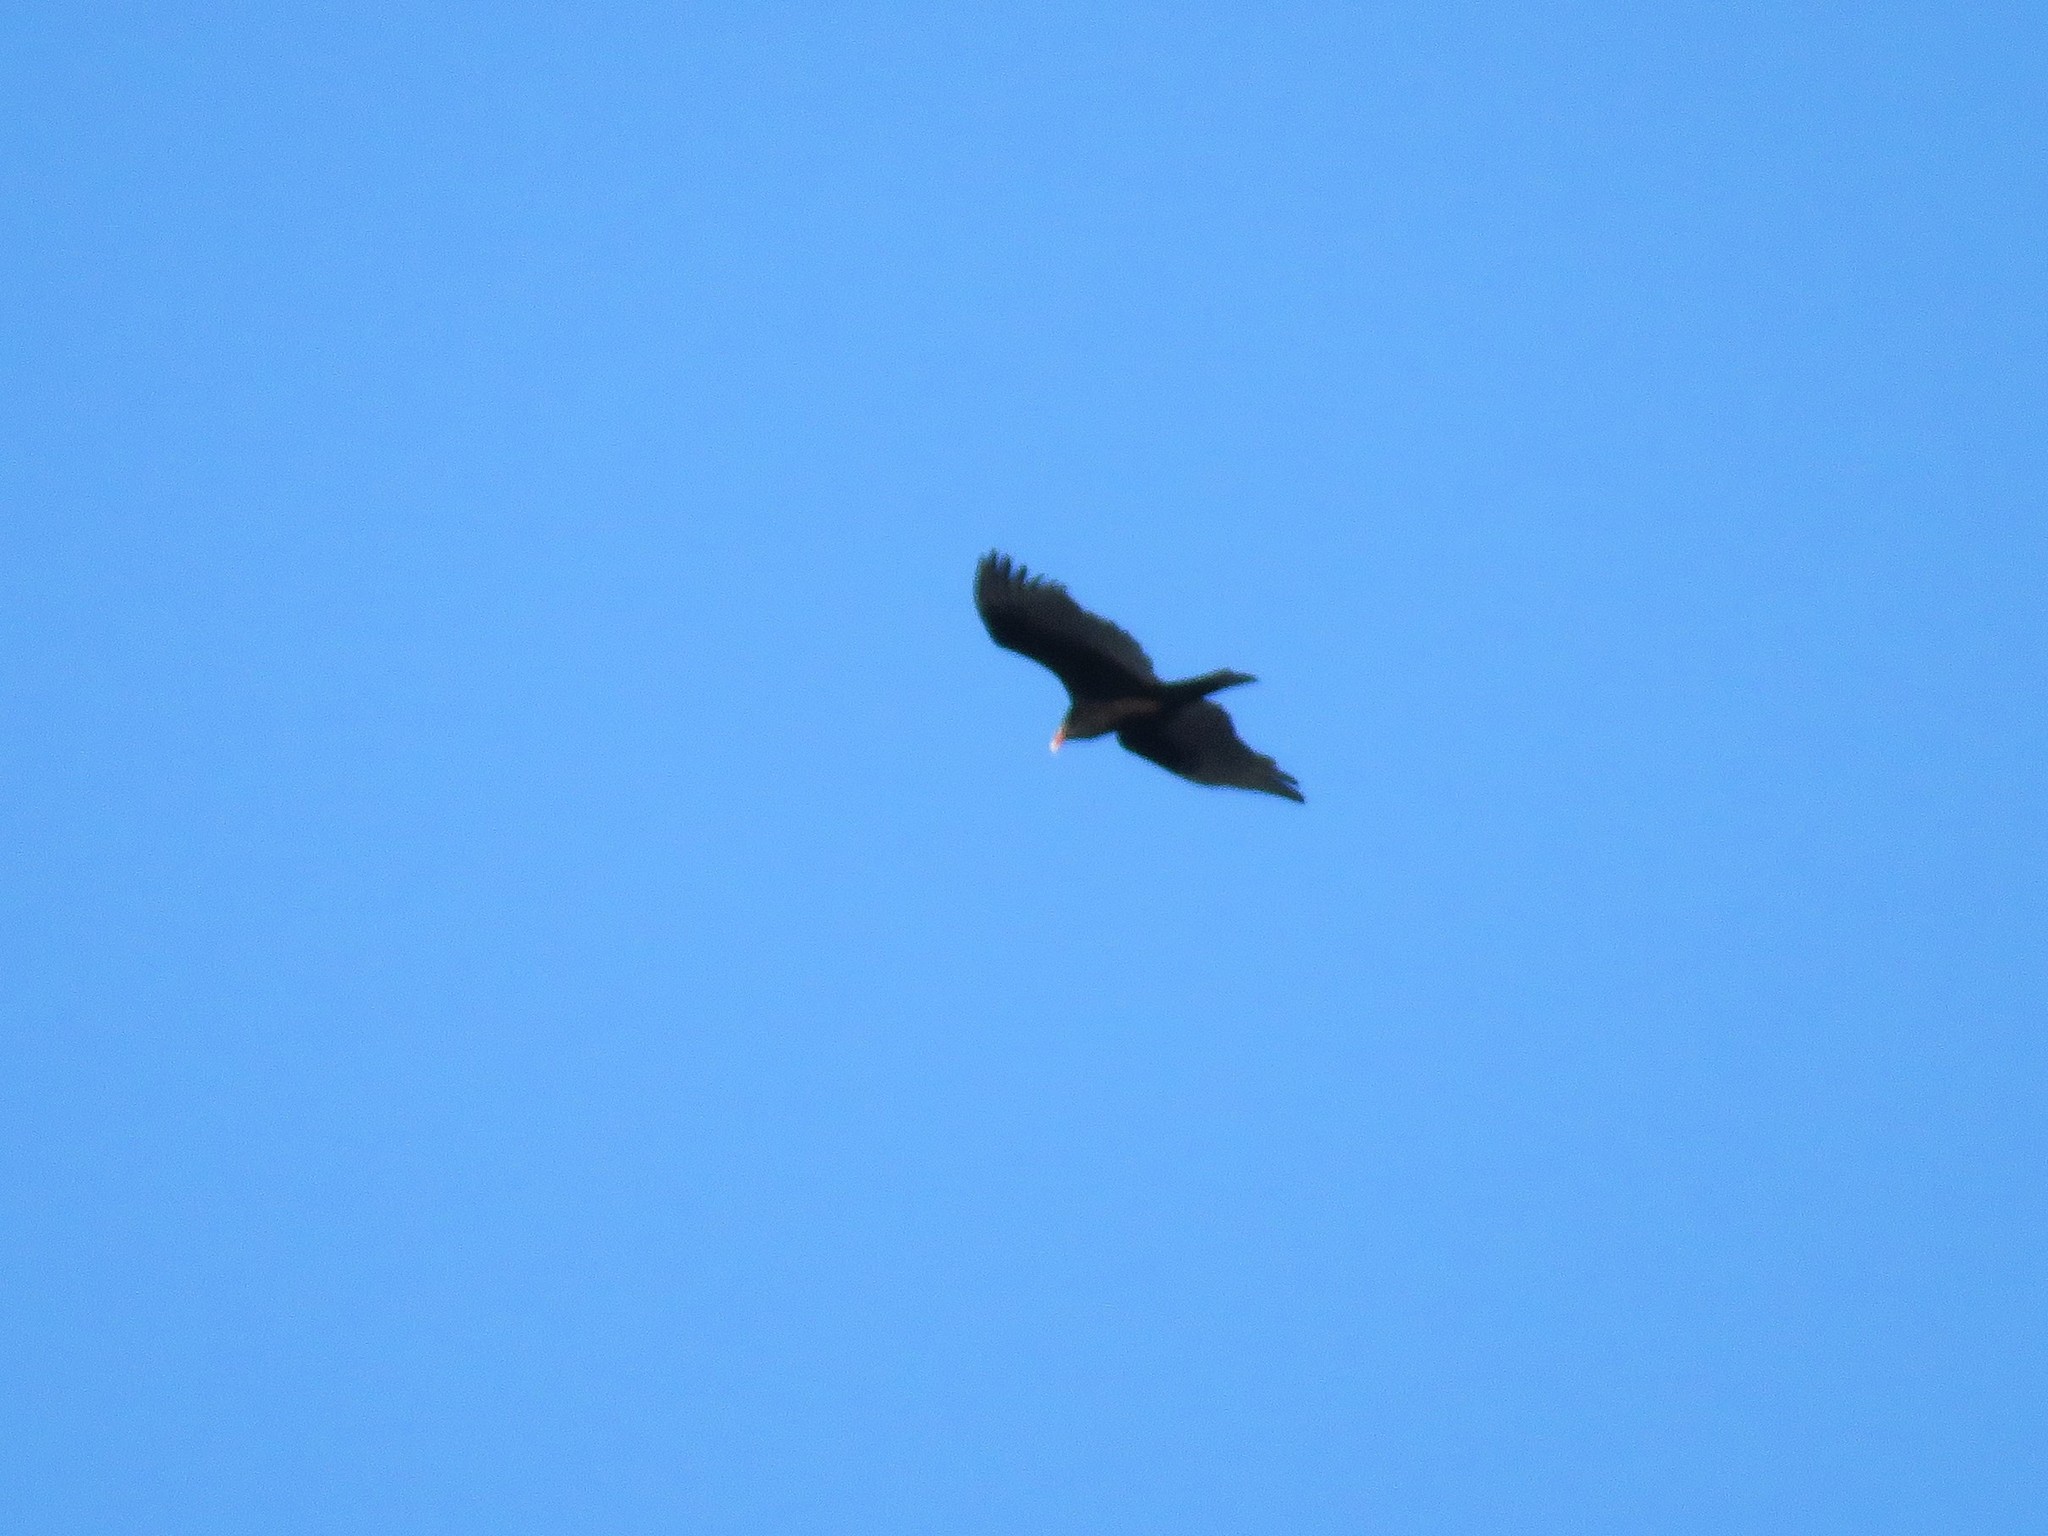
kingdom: Animalia
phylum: Chordata
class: Aves
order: Accipitriformes
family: Cathartidae
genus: Cathartes
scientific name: Cathartes aura
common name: Turkey vulture
